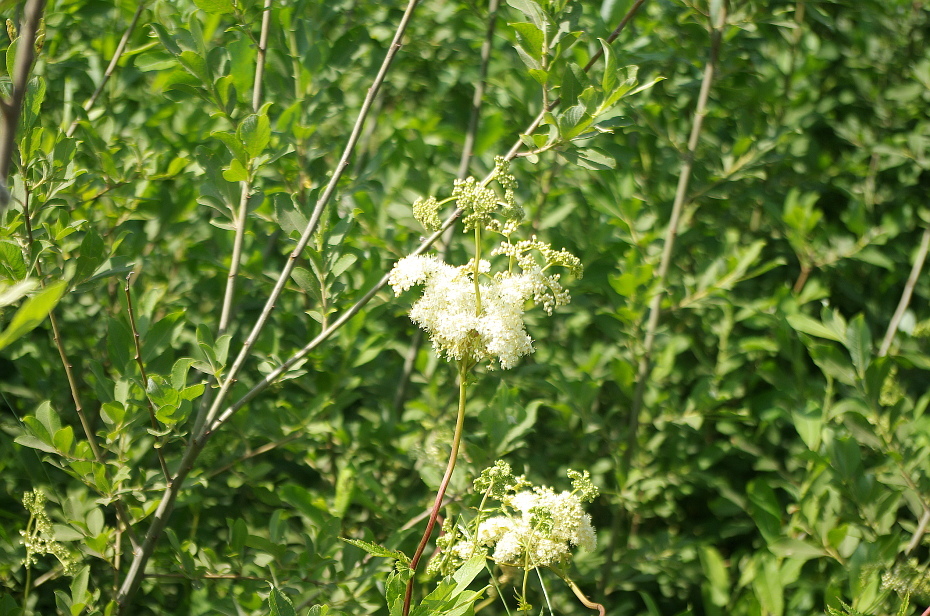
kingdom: Plantae
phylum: Tracheophyta
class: Magnoliopsida
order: Malpighiales
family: Salicaceae
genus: Salix
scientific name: Salix aurita
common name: Eared willow
